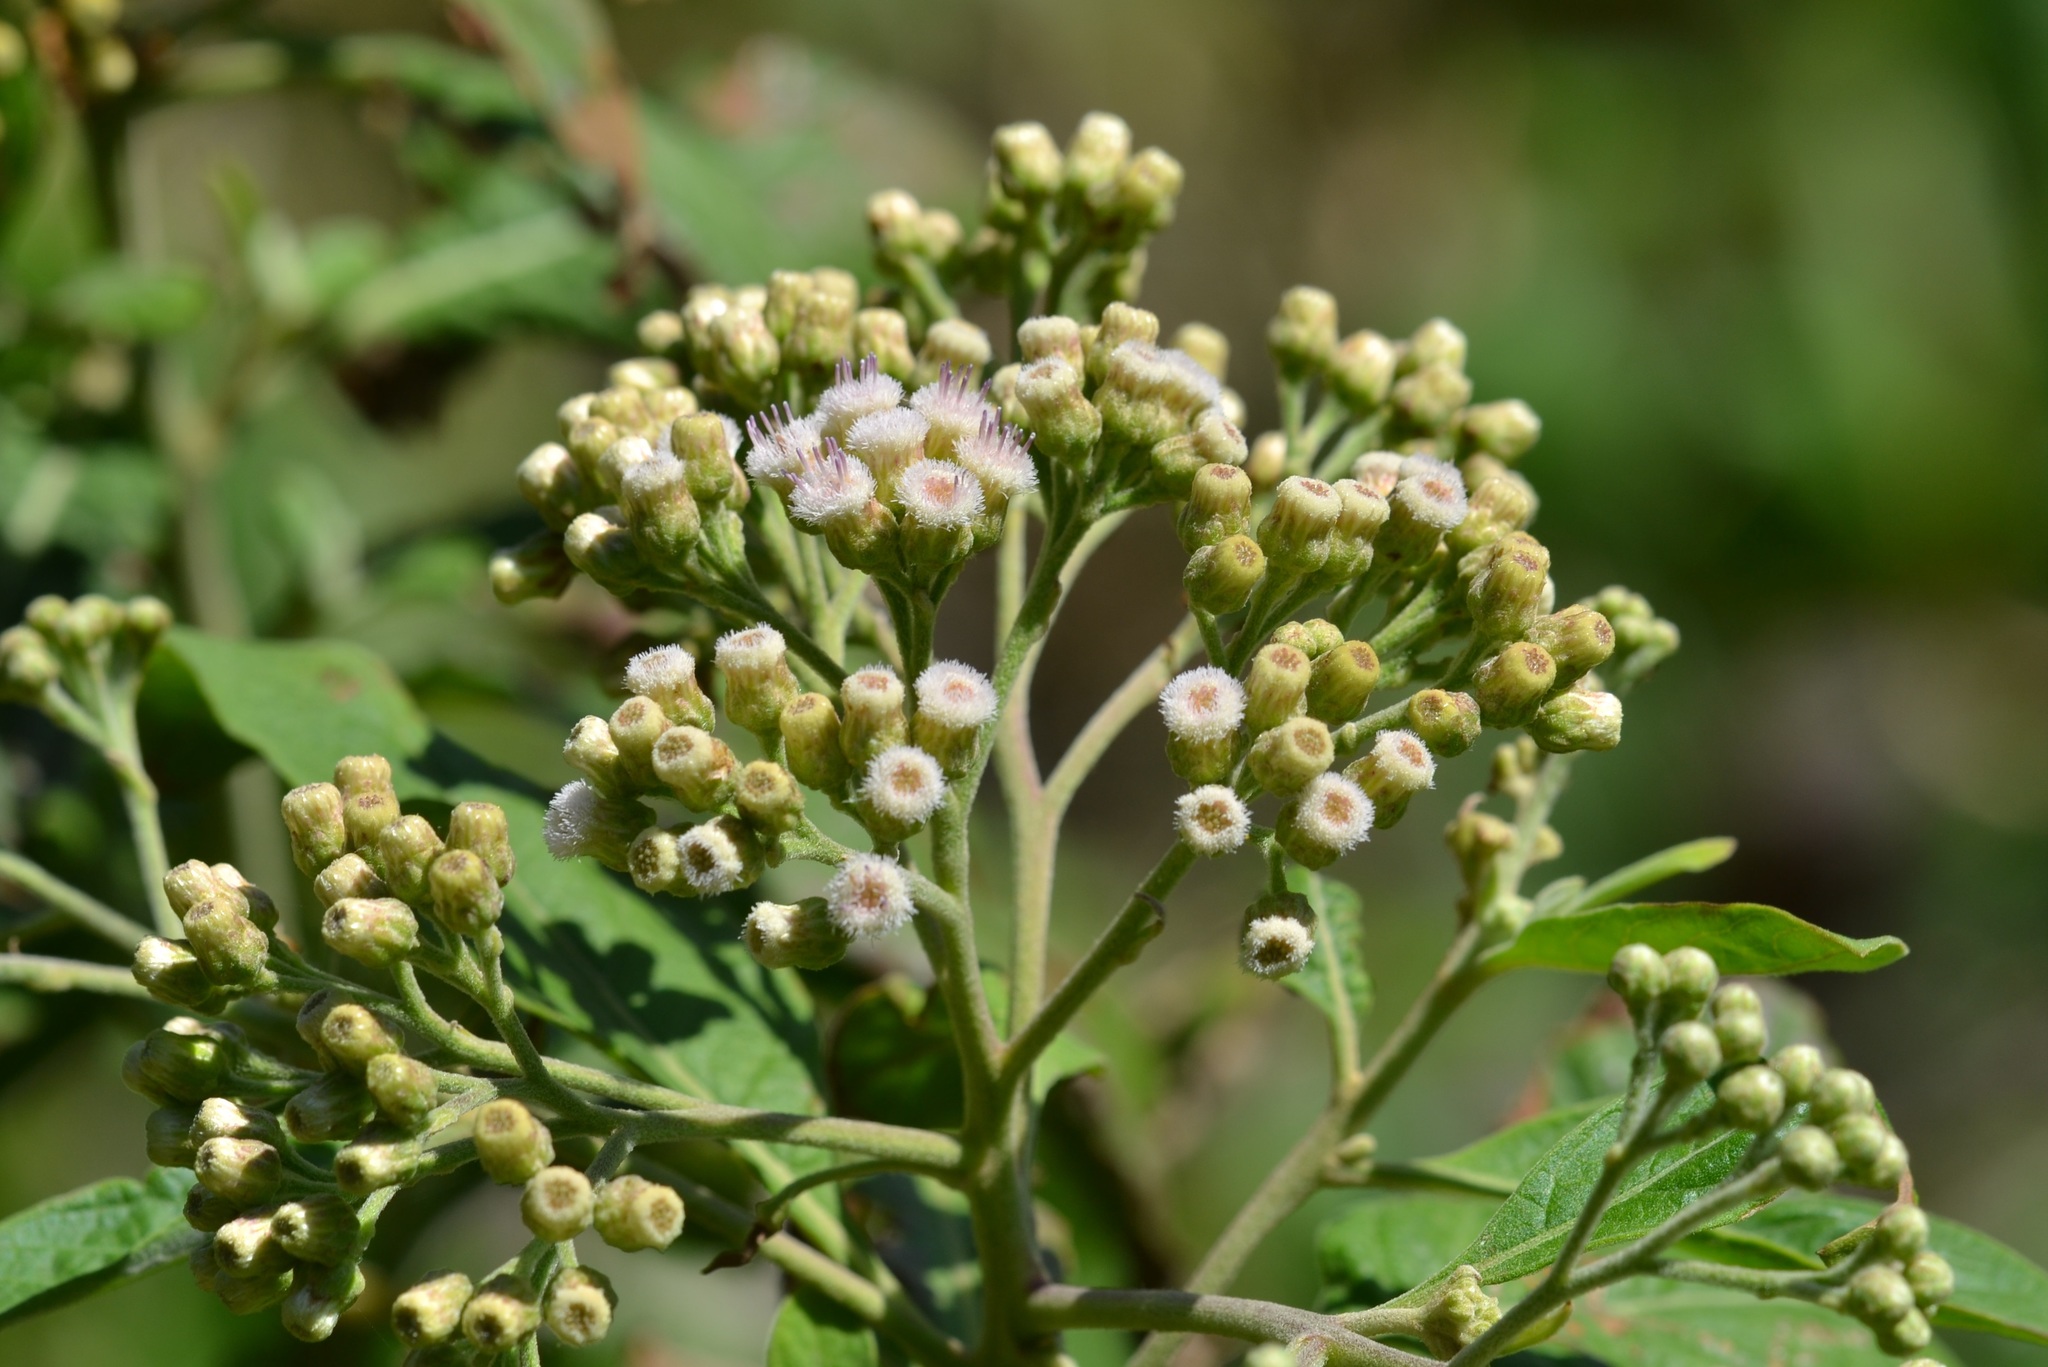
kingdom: Plantae
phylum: Tracheophyta
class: Magnoliopsida
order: Asterales
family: Asteraceae
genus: Pluchea
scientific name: Pluchea carolinensis
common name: Marsh fleabane
